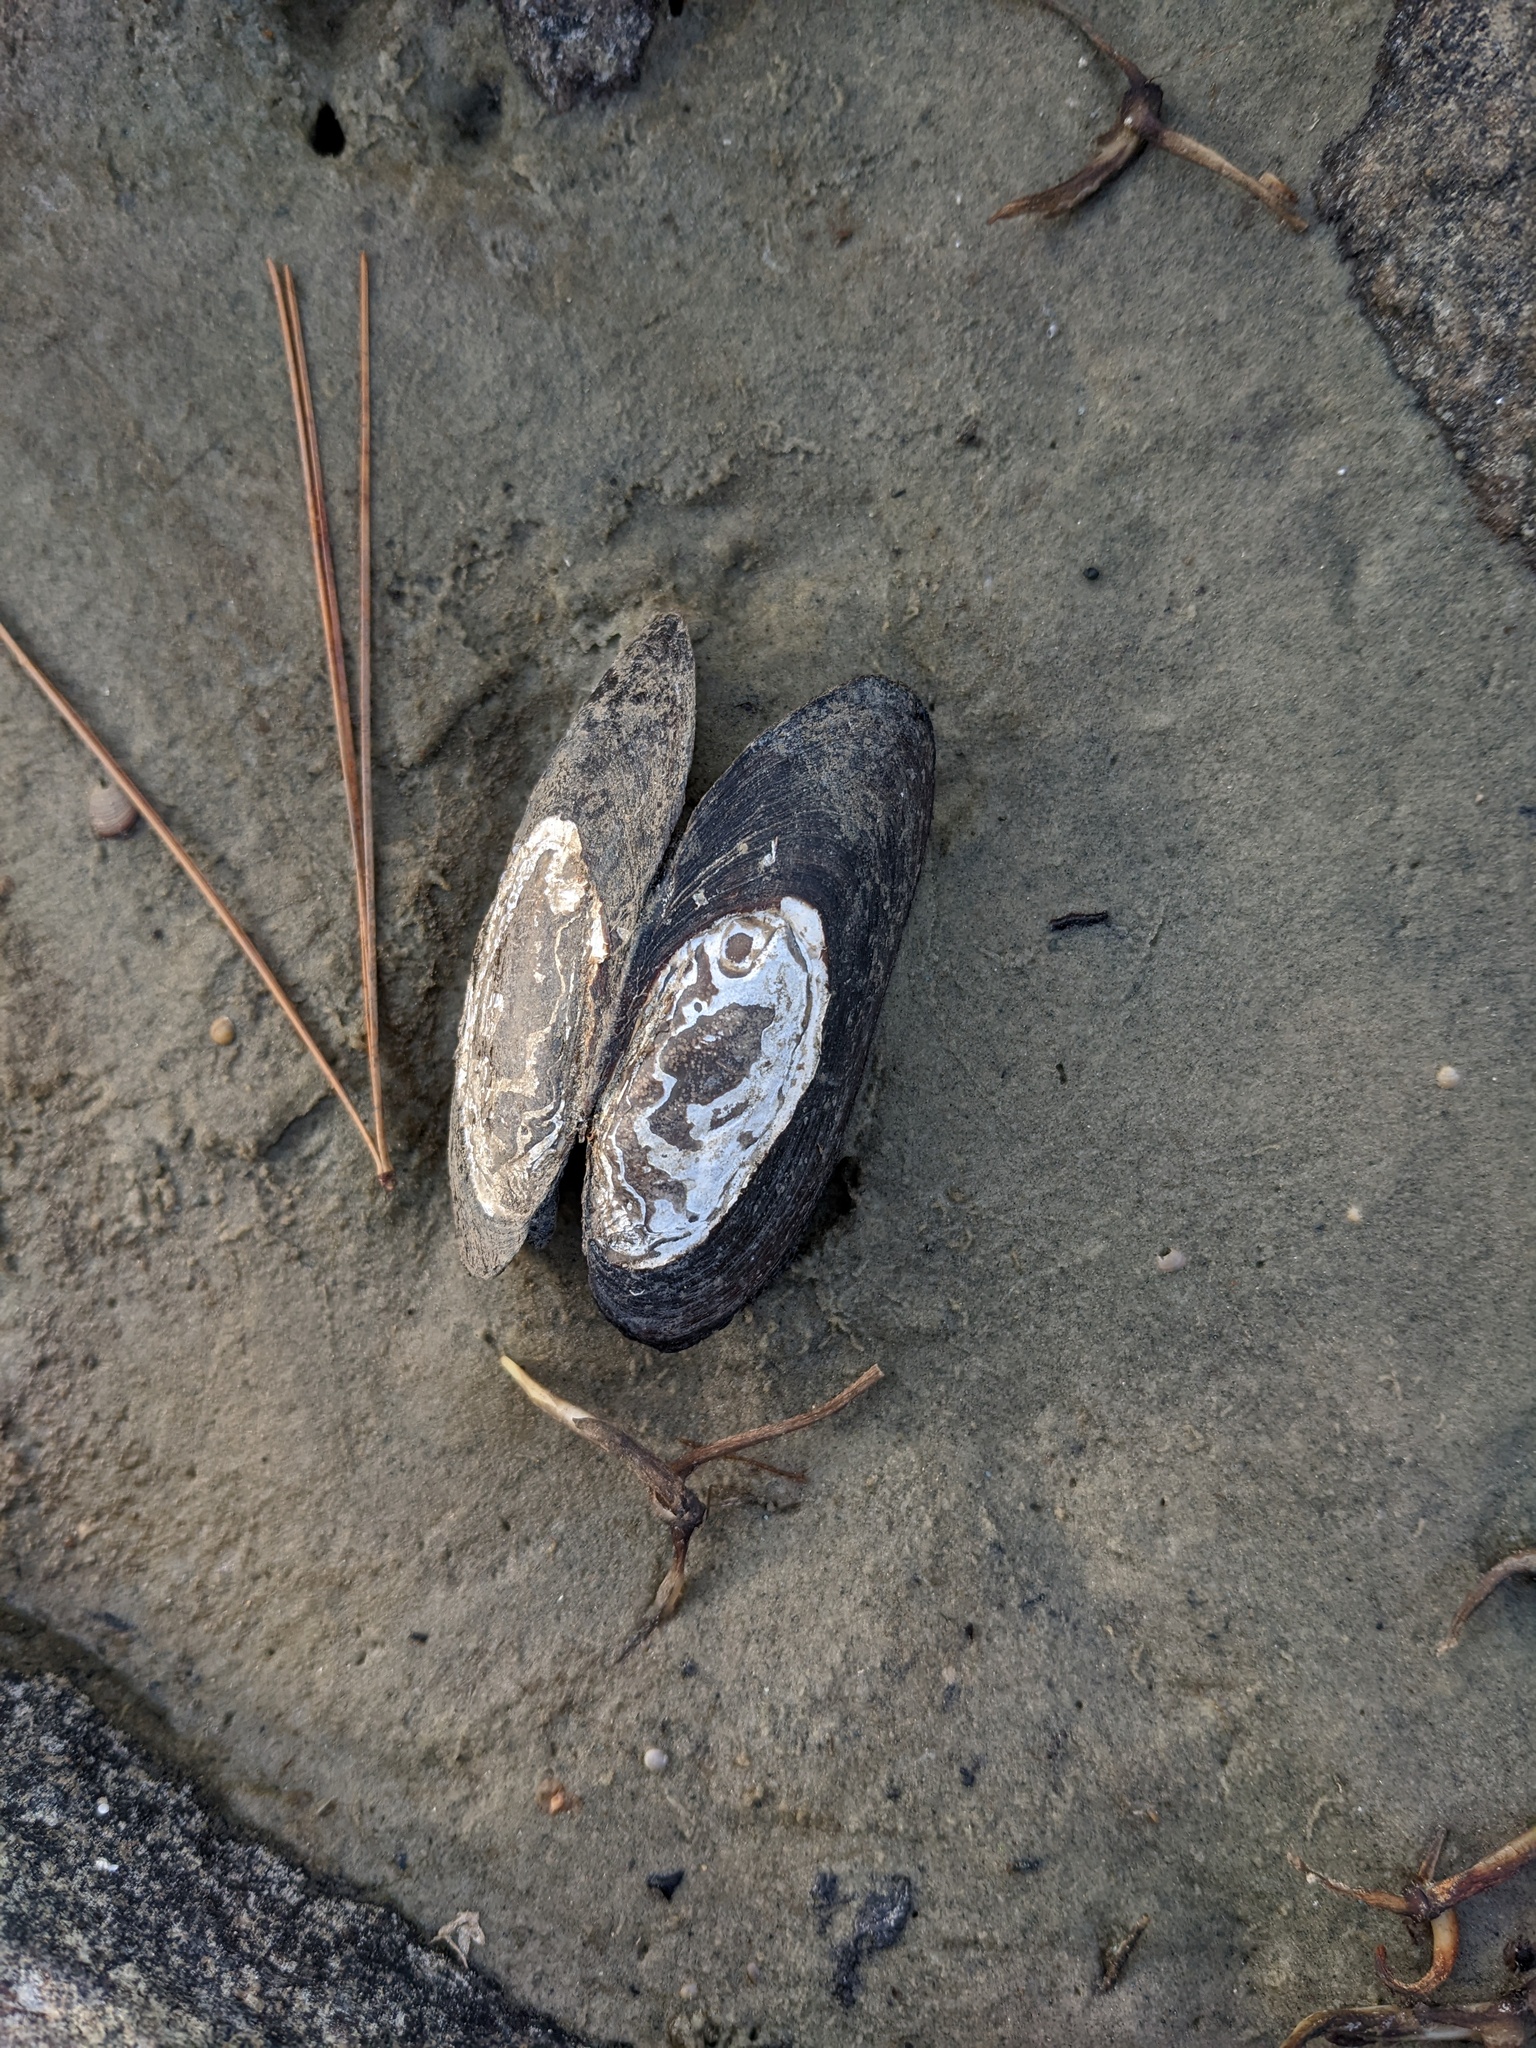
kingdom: Animalia
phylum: Mollusca
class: Bivalvia
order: Unionida
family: Unionidae
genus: Elliptio
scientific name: Elliptio complanata
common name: Eastern elliptio
